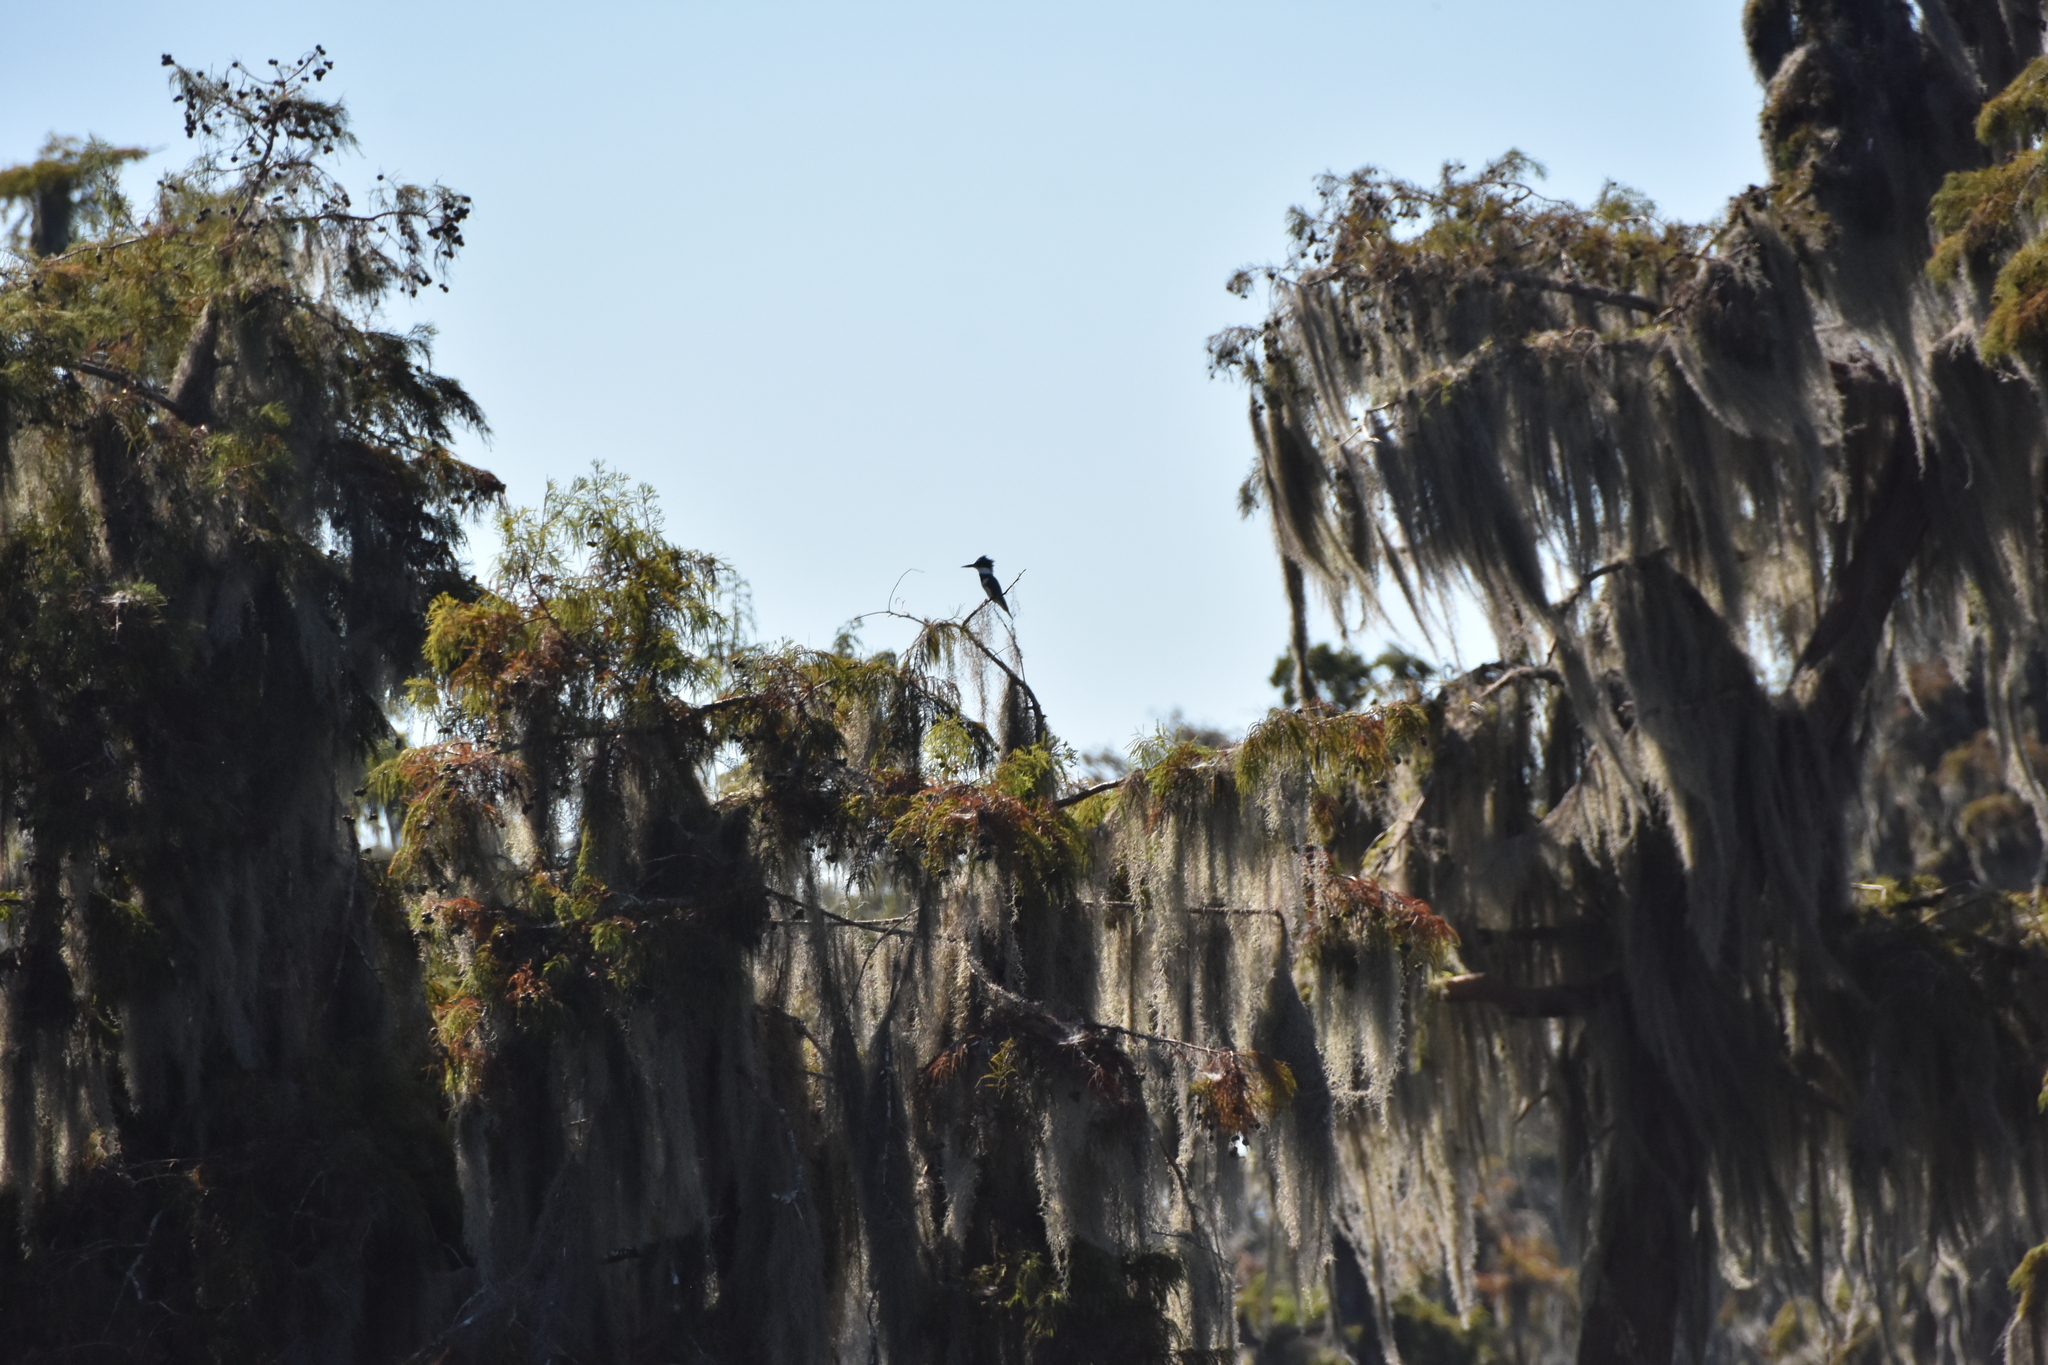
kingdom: Animalia
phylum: Chordata
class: Aves
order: Coraciiformes
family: Alcedinidae
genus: Megaceryle
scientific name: Megaceryle alcyon
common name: Belted kingfisher
